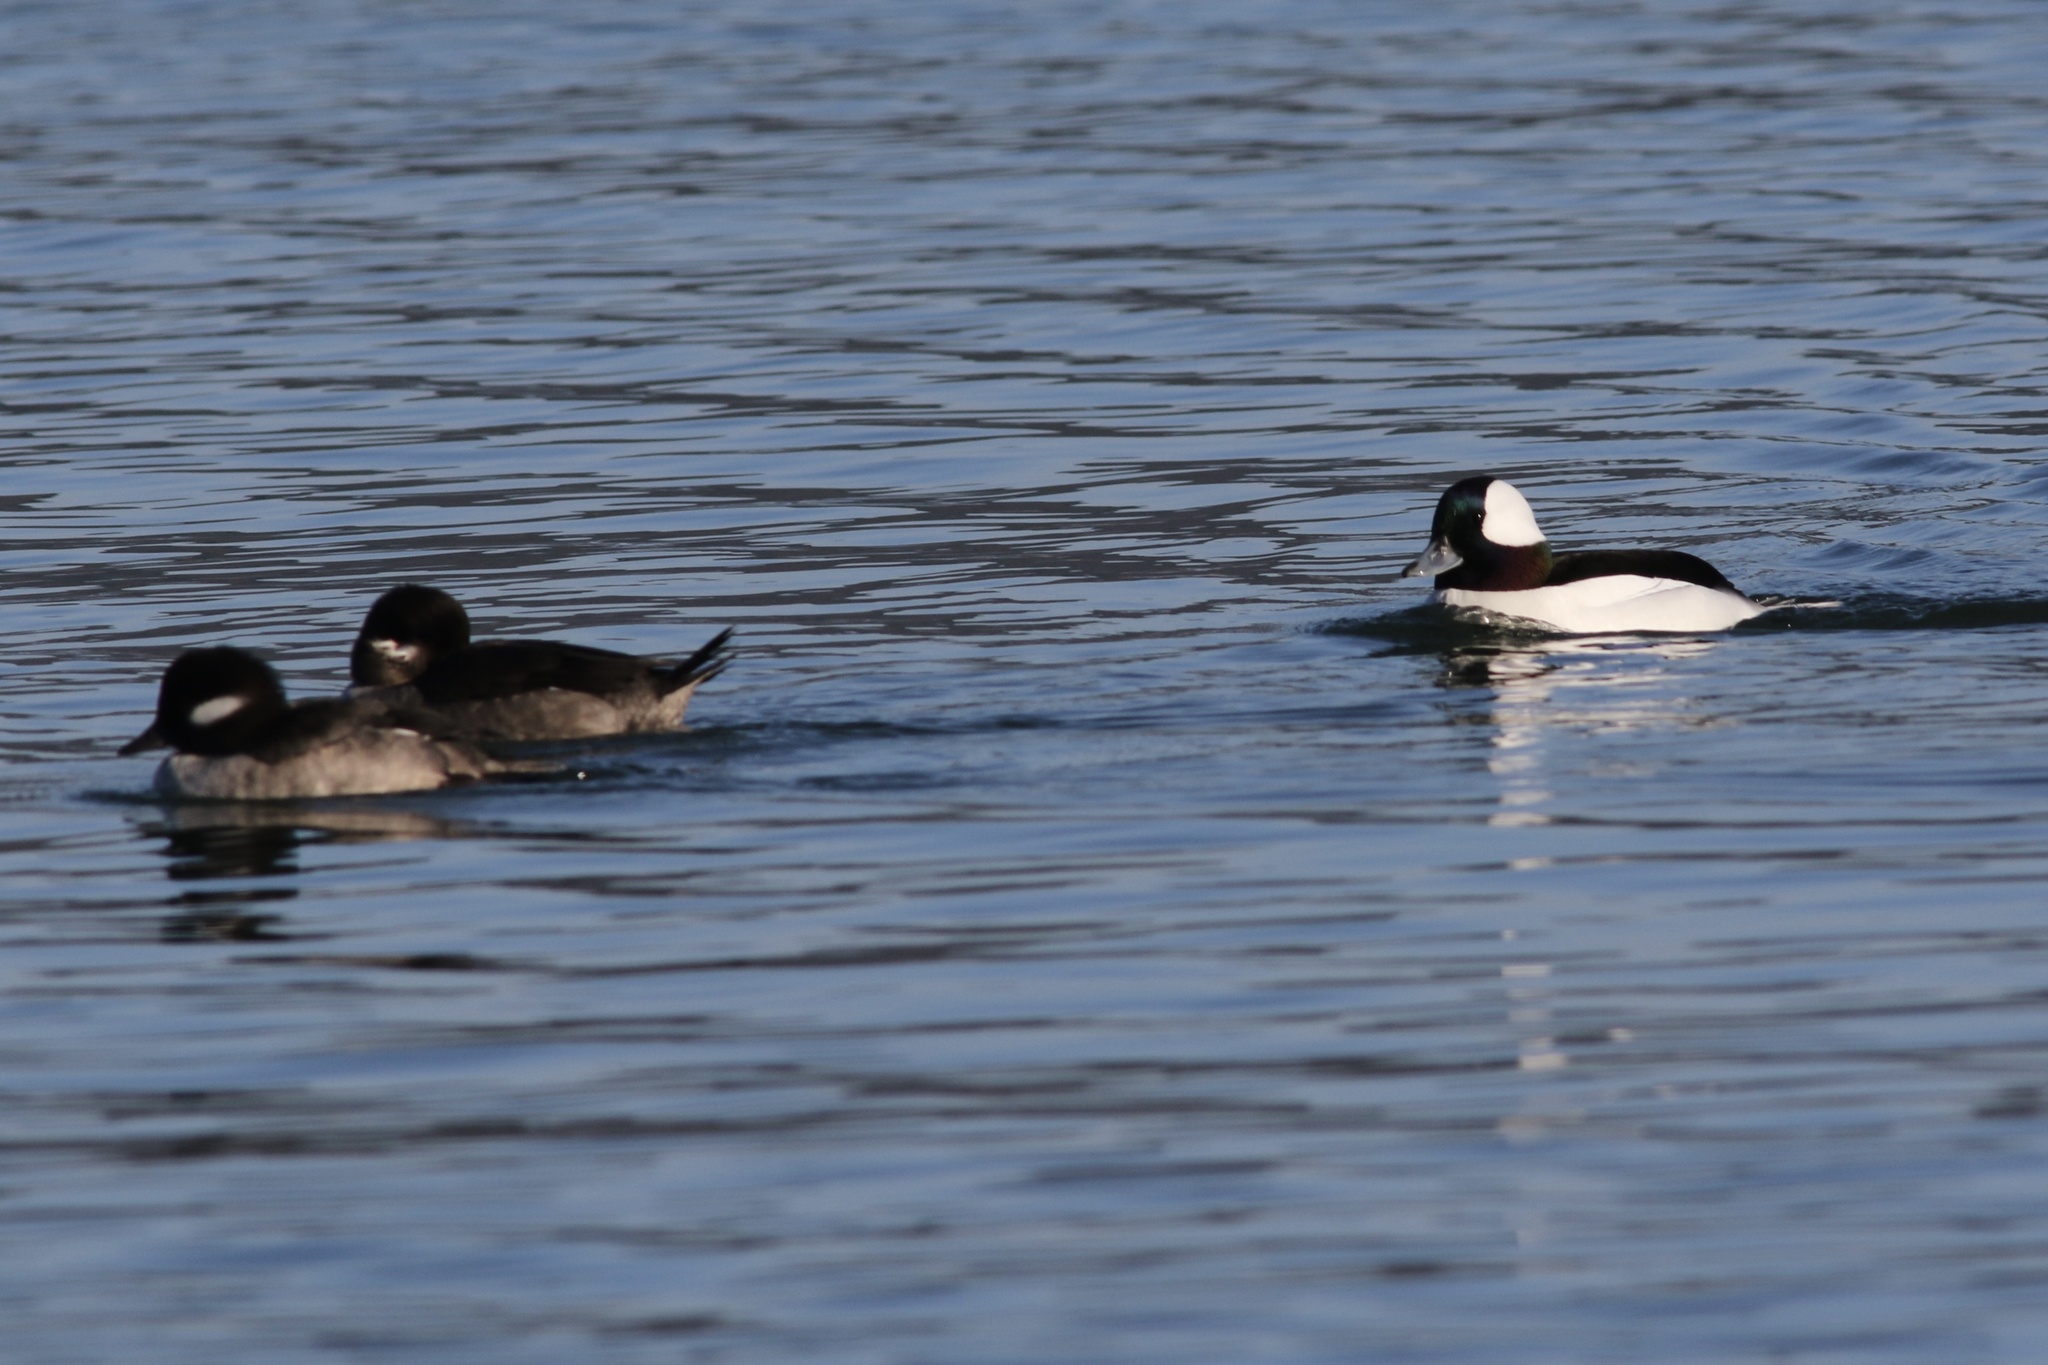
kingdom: Animalia
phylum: Chordata
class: Aves
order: Anseriformes
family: Anatidae
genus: Bucephala
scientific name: Bucephala albeola
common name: Bufflehead
